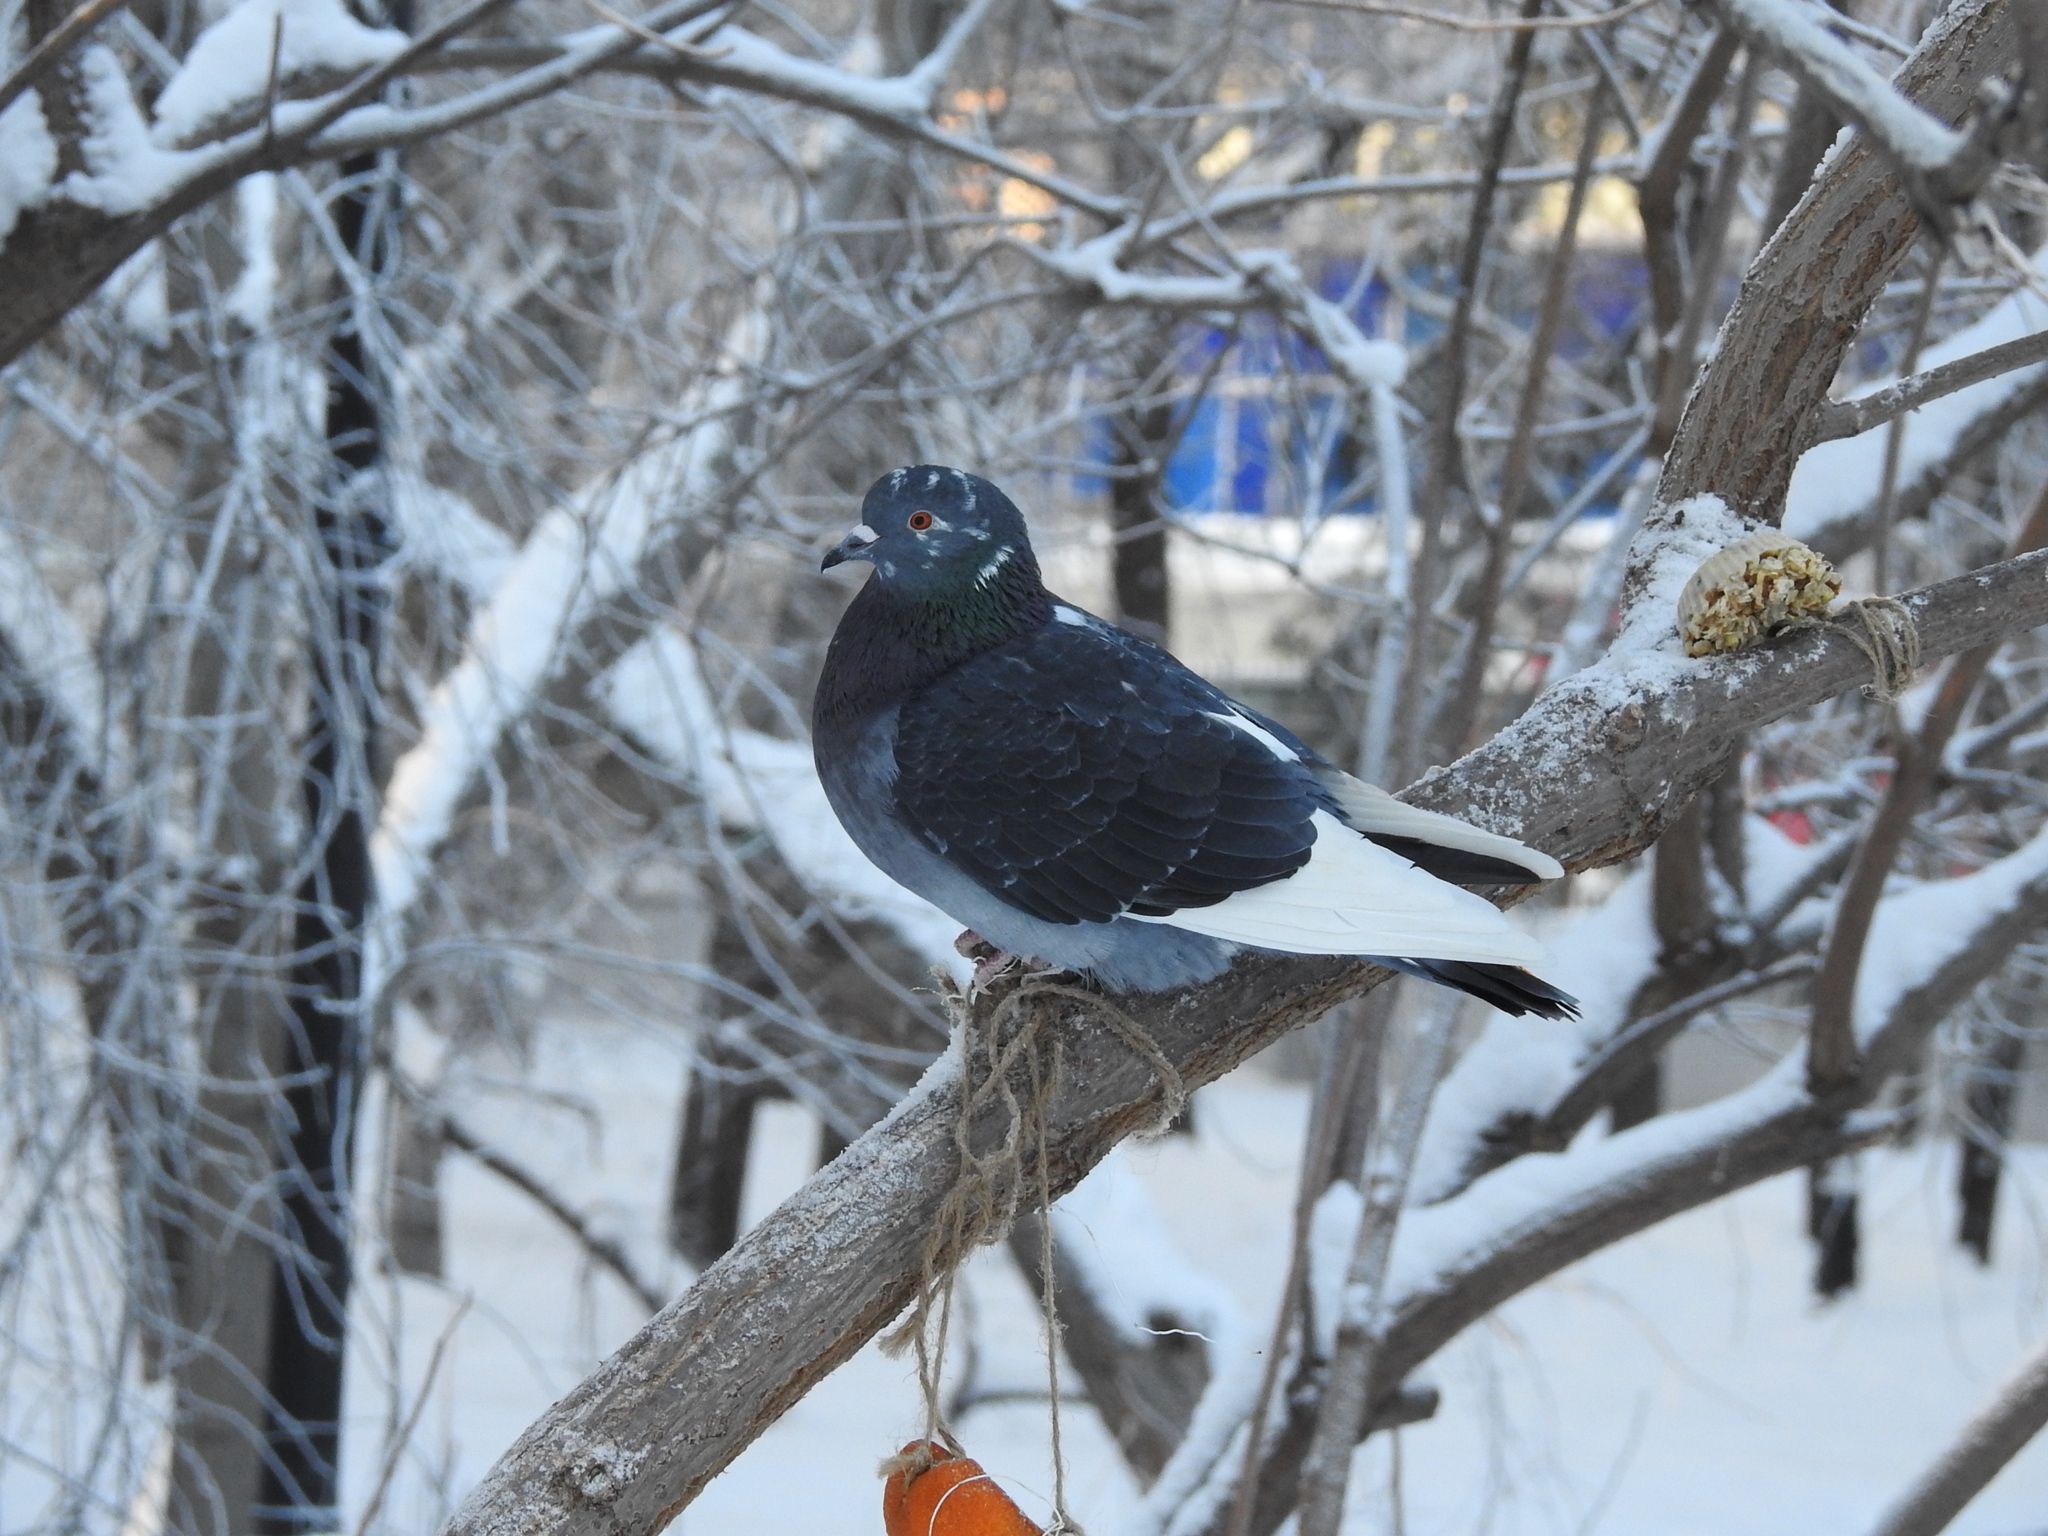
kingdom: Animalia
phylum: Chordata
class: Aves
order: Columbiformes
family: Columbidae
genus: Columba
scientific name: Columba livia
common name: Rock pigeon
